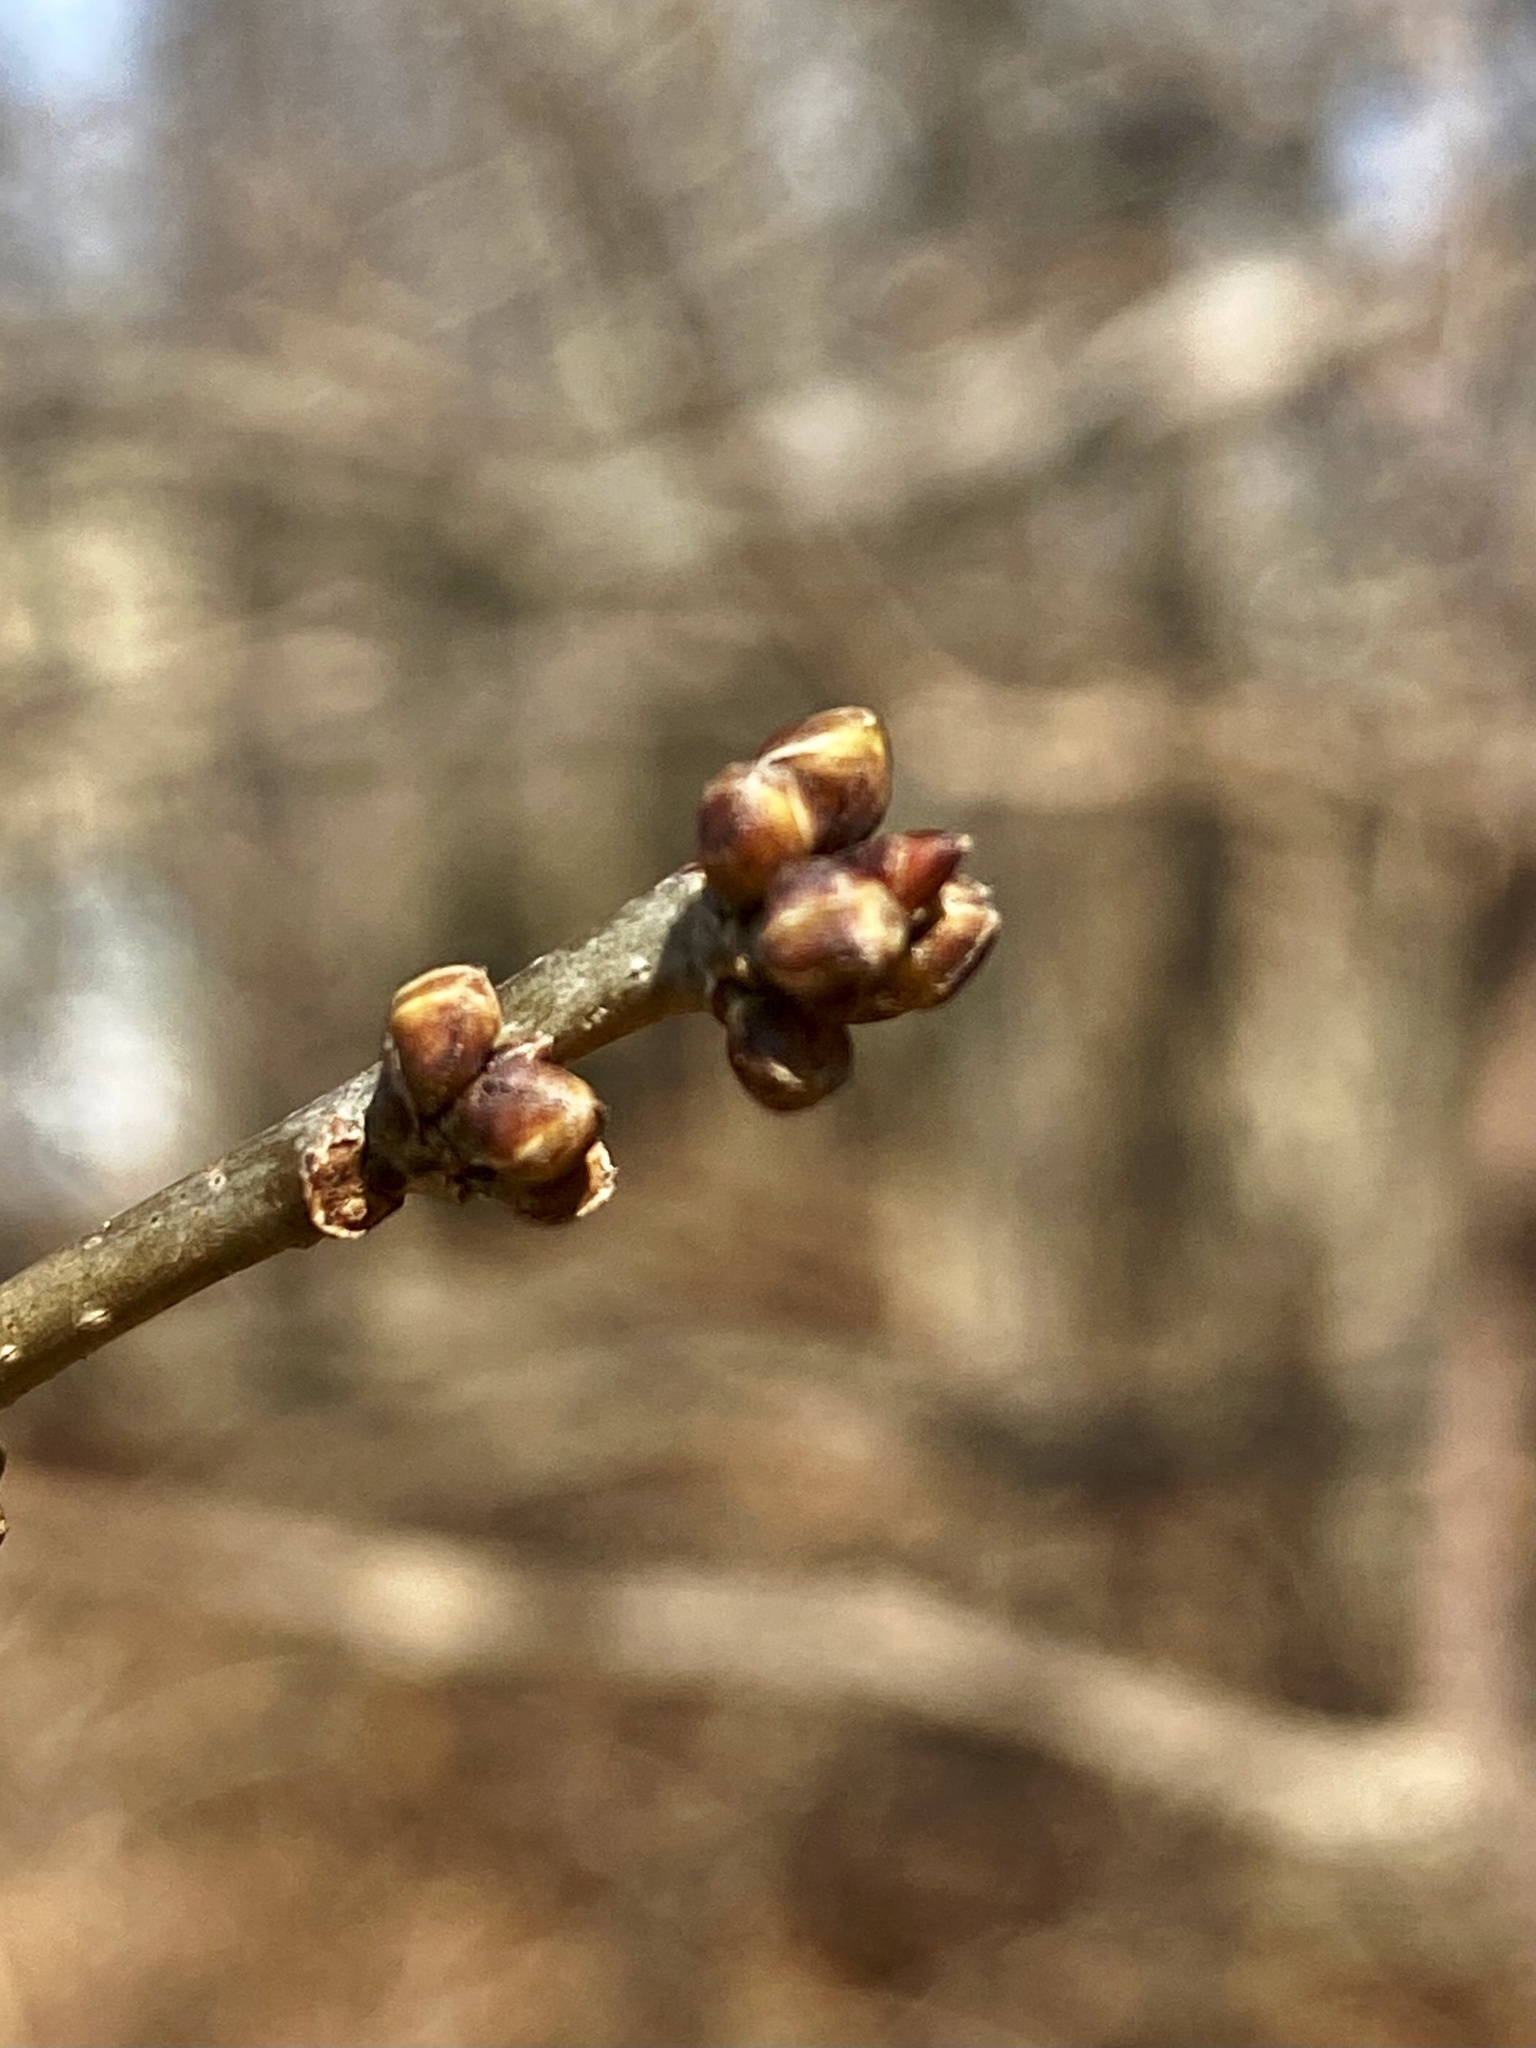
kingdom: Plantae
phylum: Tracheophyta
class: Magnoliopsida
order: Laurales
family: Lauraceae
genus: Lindera
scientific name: Lindera benzoin
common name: Spicebush
